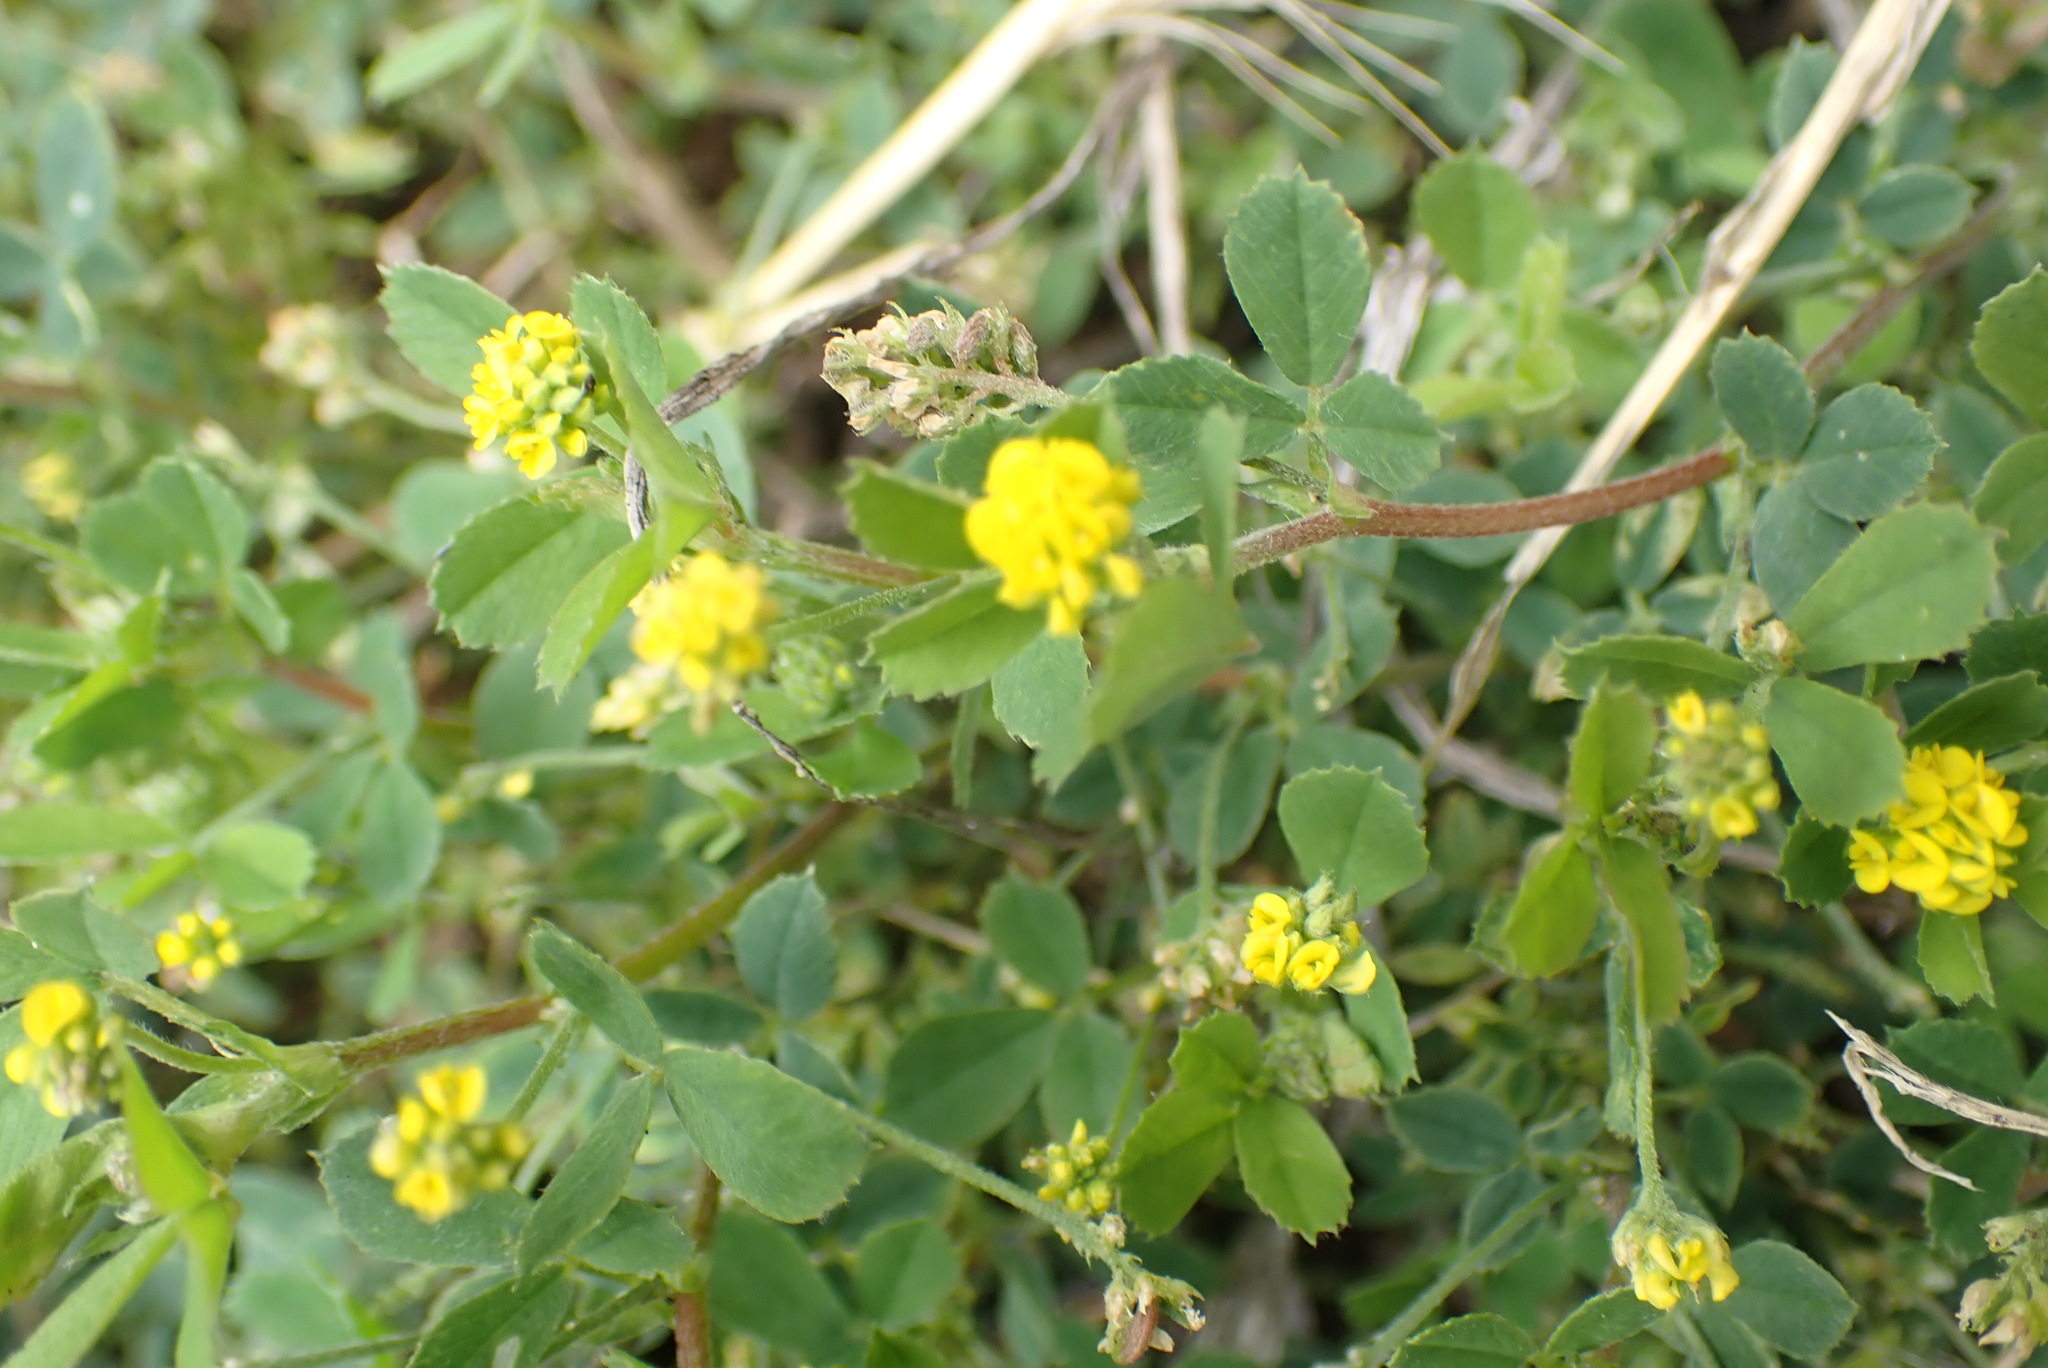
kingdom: Plantae
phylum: Tracheophyta
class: Magnoliopsida
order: Fabales
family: Fabaceae
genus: Medicago
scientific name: Medicago lupulina
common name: Black medick
